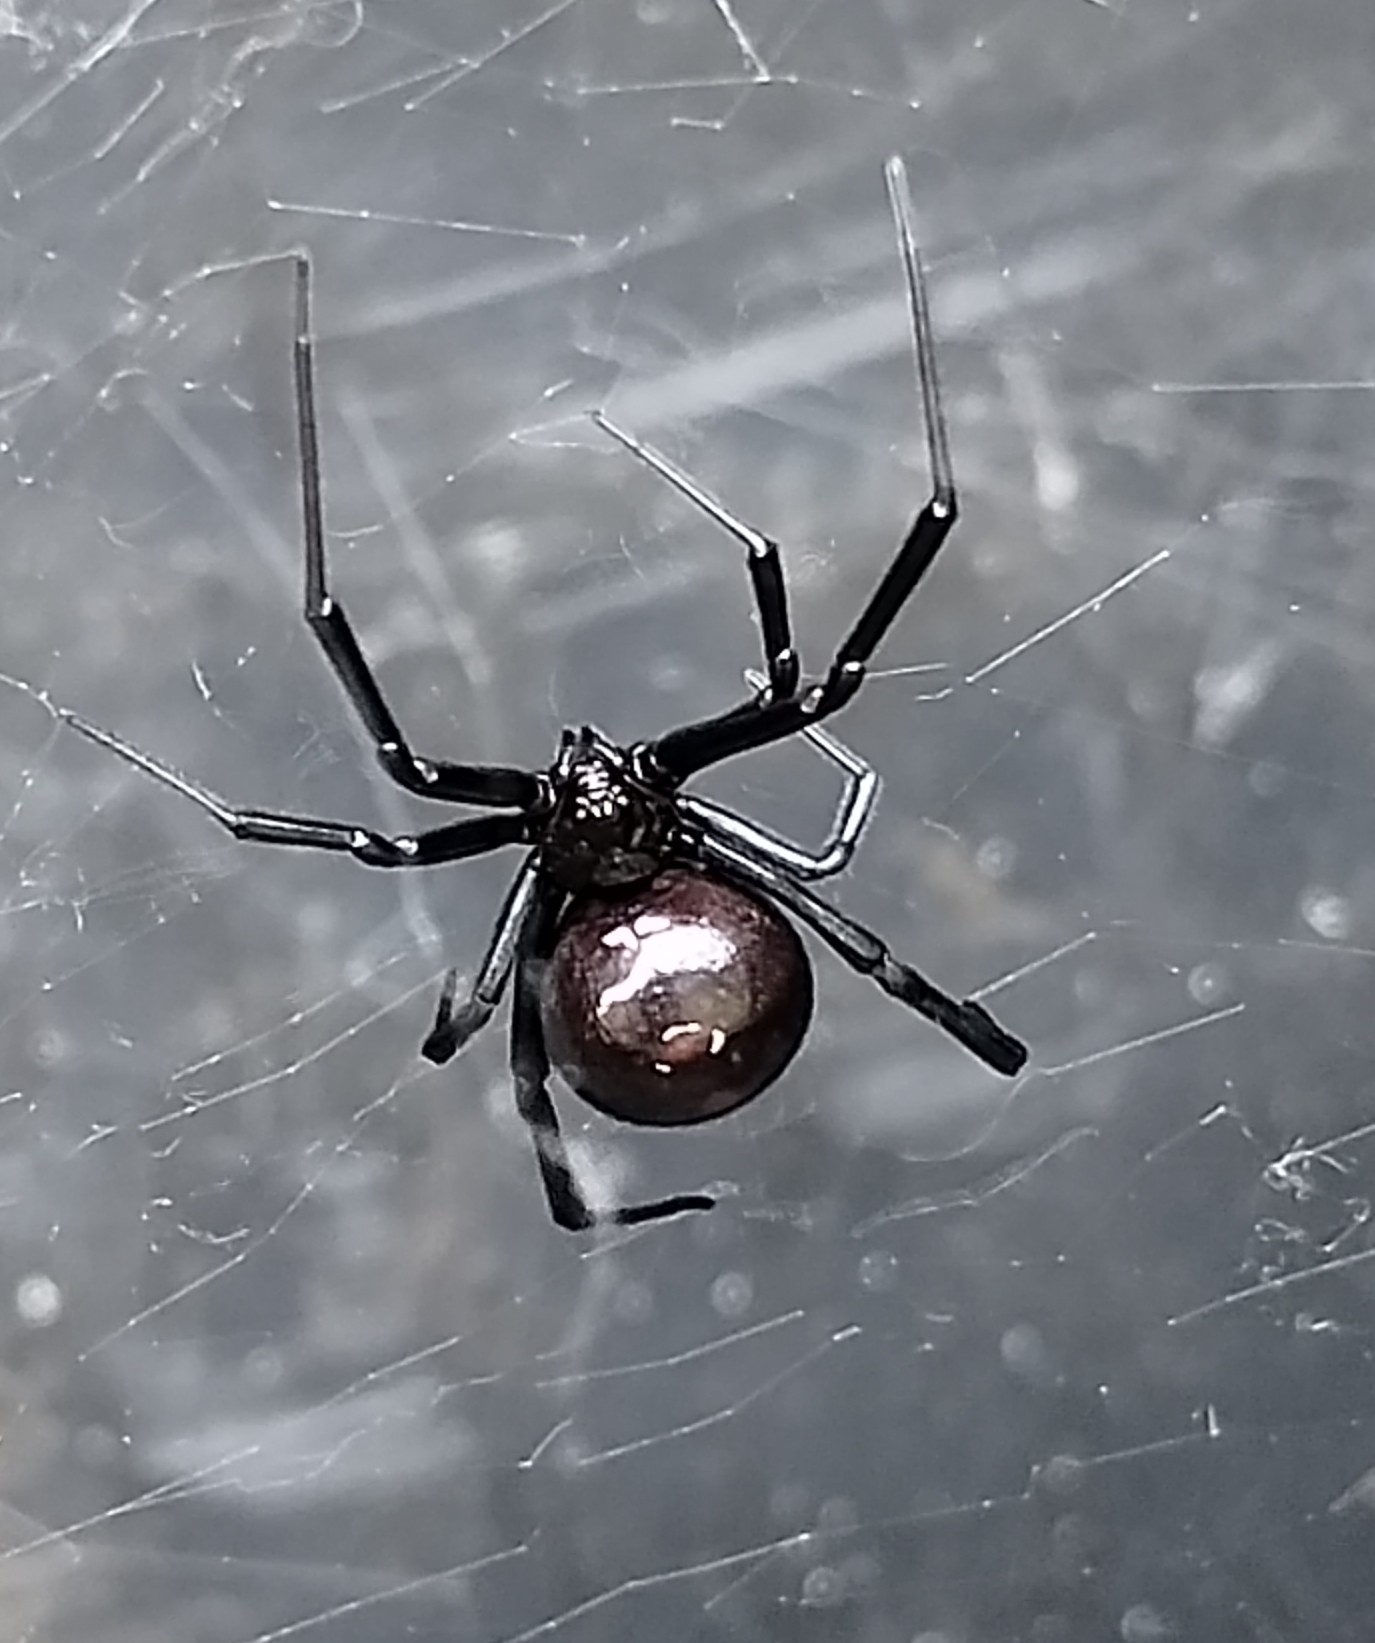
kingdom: Animalia
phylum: Arthropoda
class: Arachnida
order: Araneae
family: Theridiidae
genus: Latrodectus
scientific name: Latrodectus mactans
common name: Cobweb spiders
